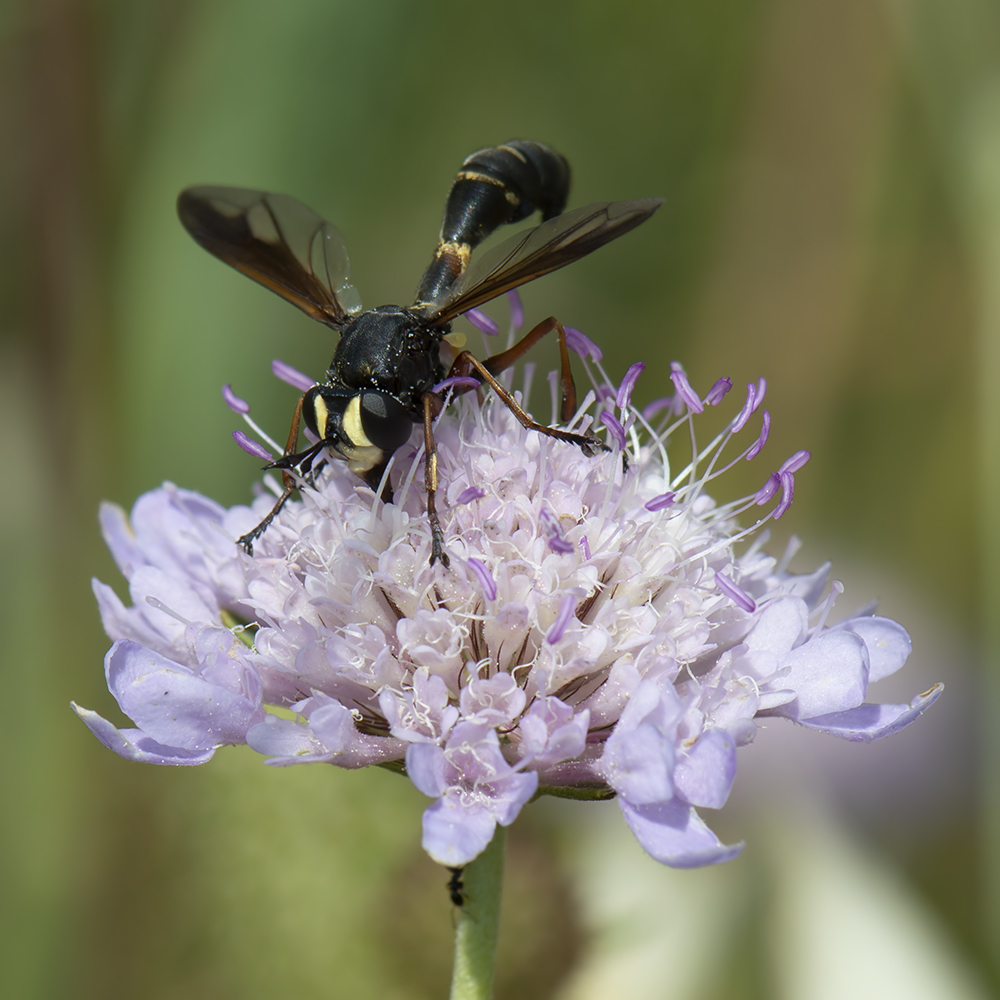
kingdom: Animalia
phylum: Arthropoda
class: Insecta
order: Diptera
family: Conopidae
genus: Physocephala
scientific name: Physocephala nigra
